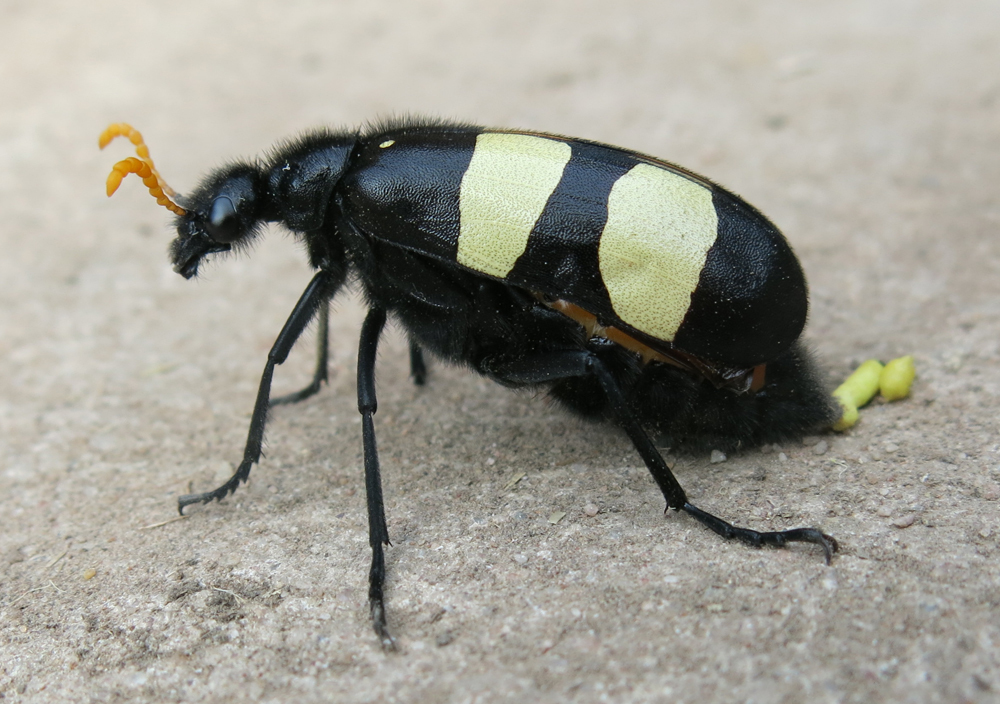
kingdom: Animalia
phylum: Arthropoda
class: Insecta
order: Coleoptera
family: Meloidae
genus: Hycleus
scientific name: Hycleus
